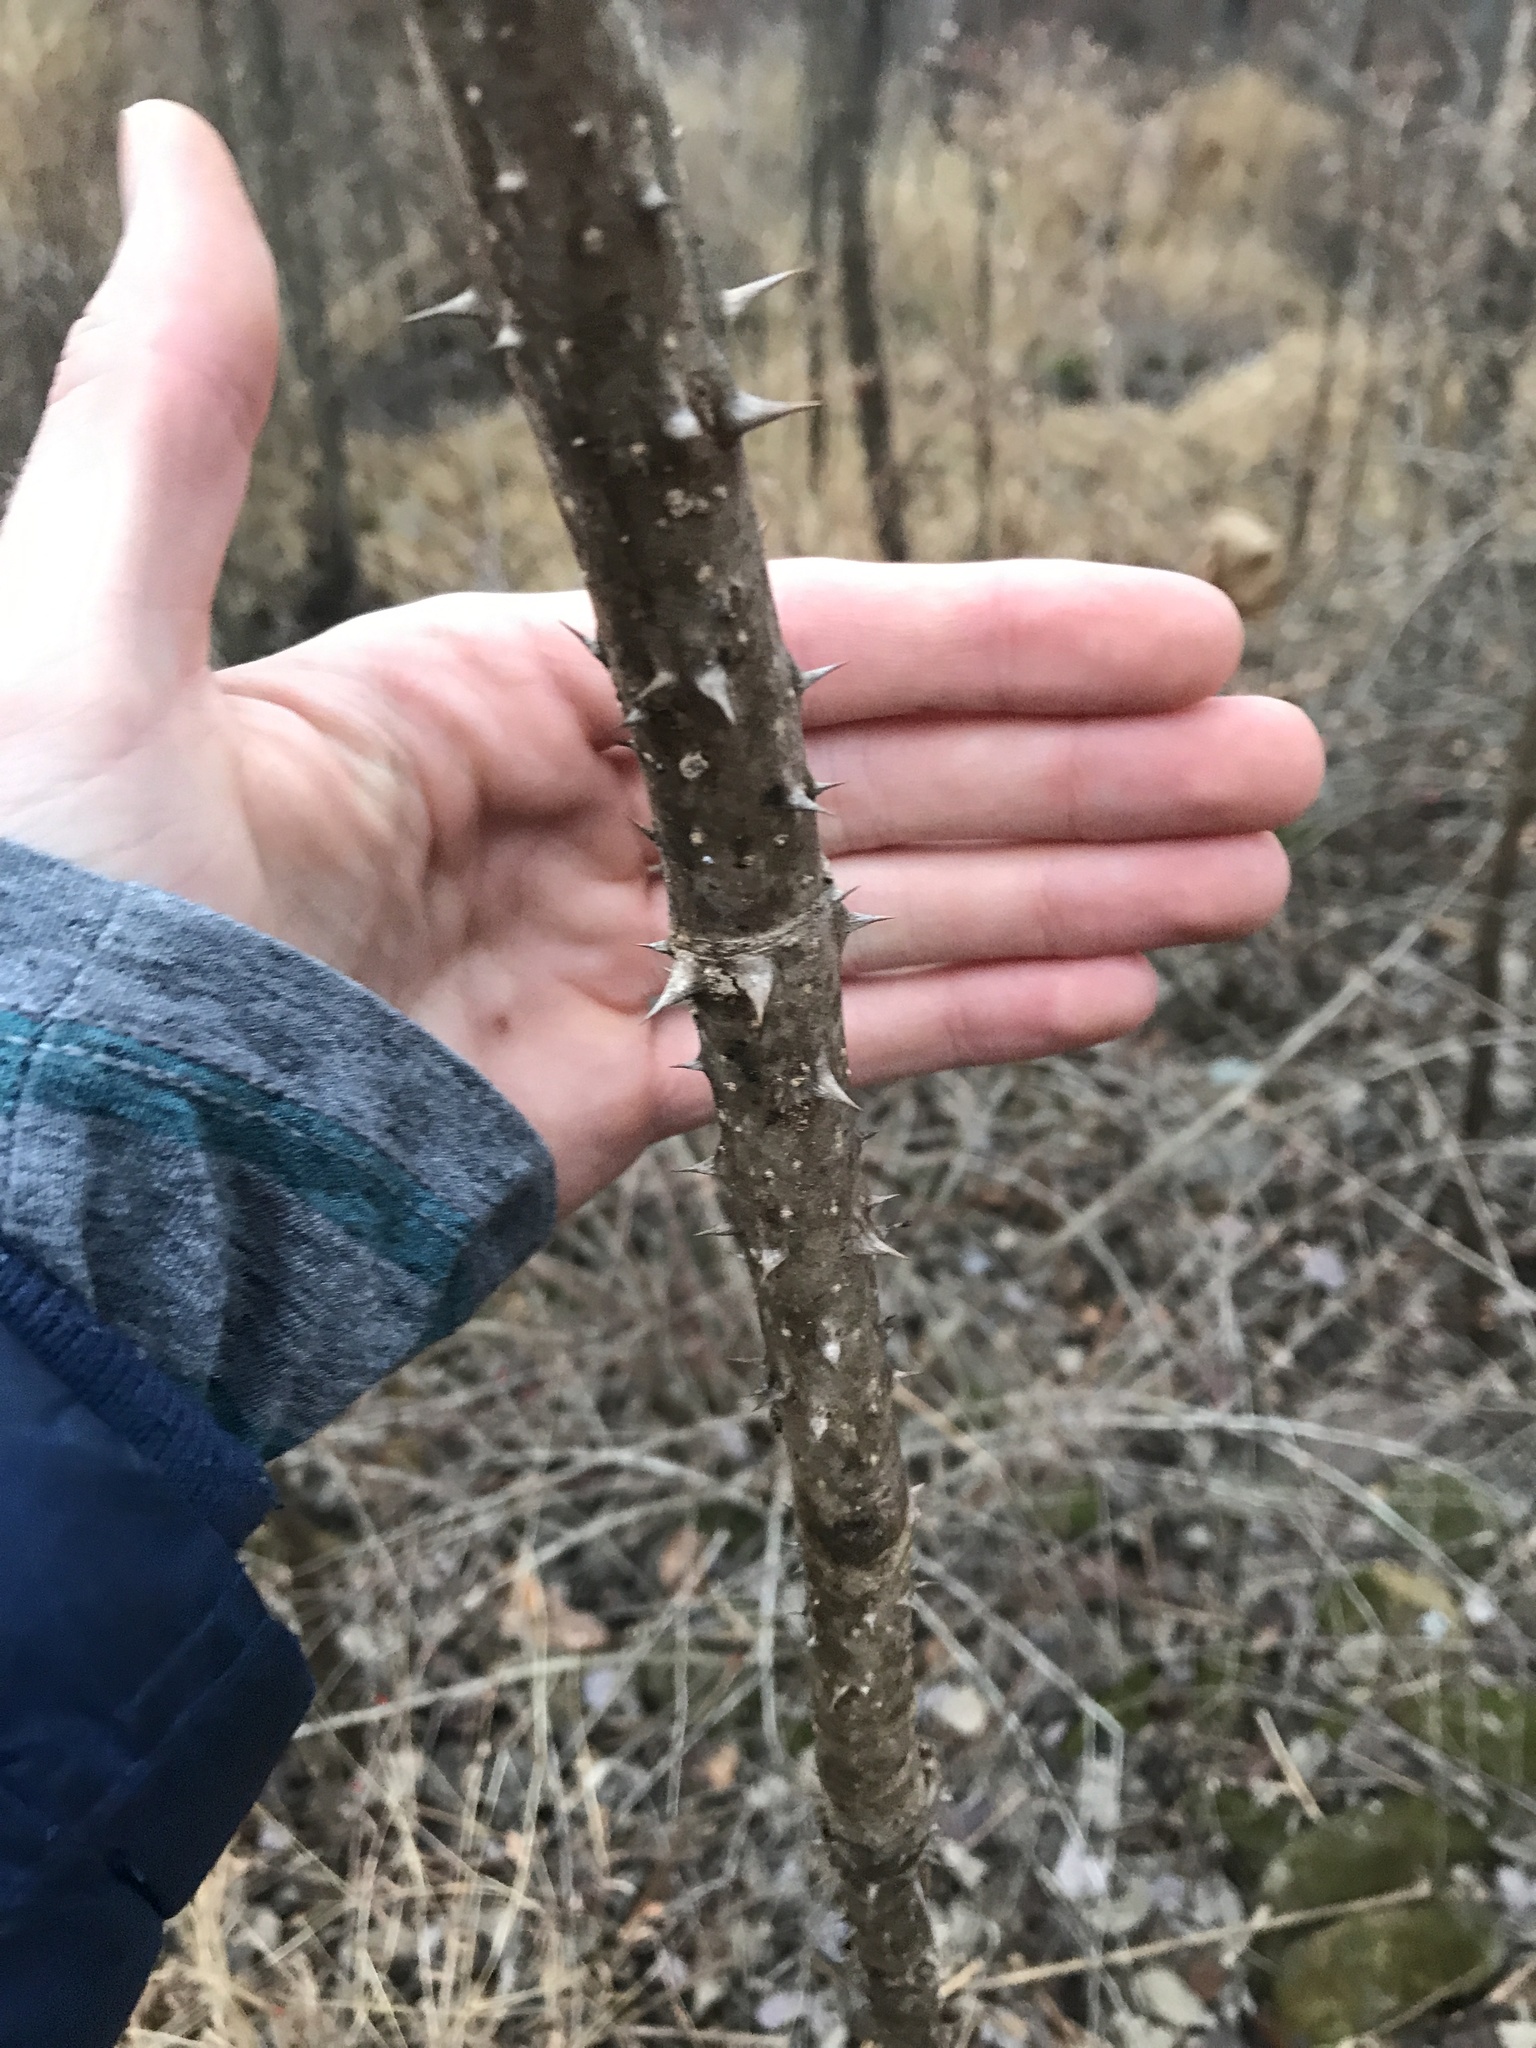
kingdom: Plantae
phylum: Tracheophyta
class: Magnoliopsida
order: Apiales
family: Araliaceae
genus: Aralia
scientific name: Aralia elata
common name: Japanese angelica-tree
